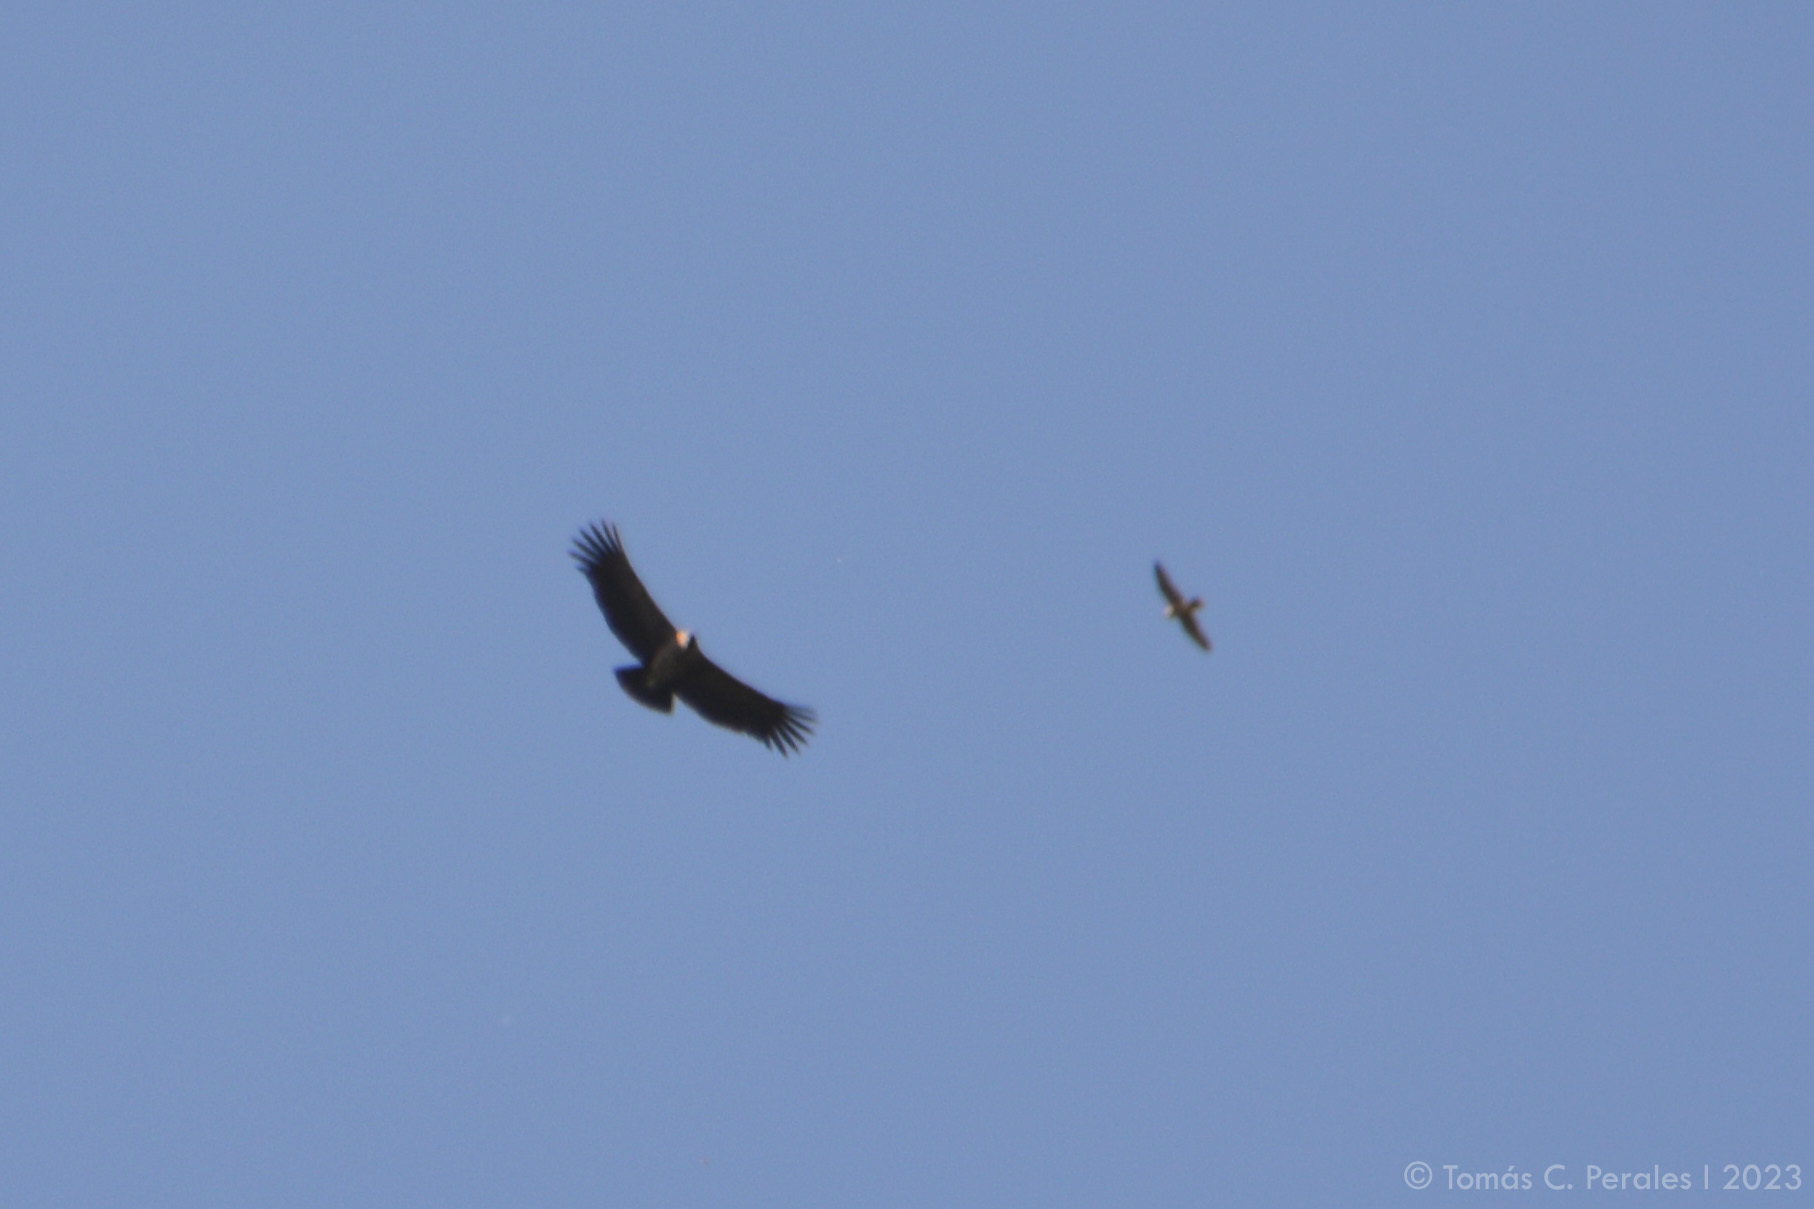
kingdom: Animalia
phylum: Chordata
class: Aves
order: Accipitriformes
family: Cathartidae
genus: Vultur
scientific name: Vultur gryphus
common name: Andean condor
